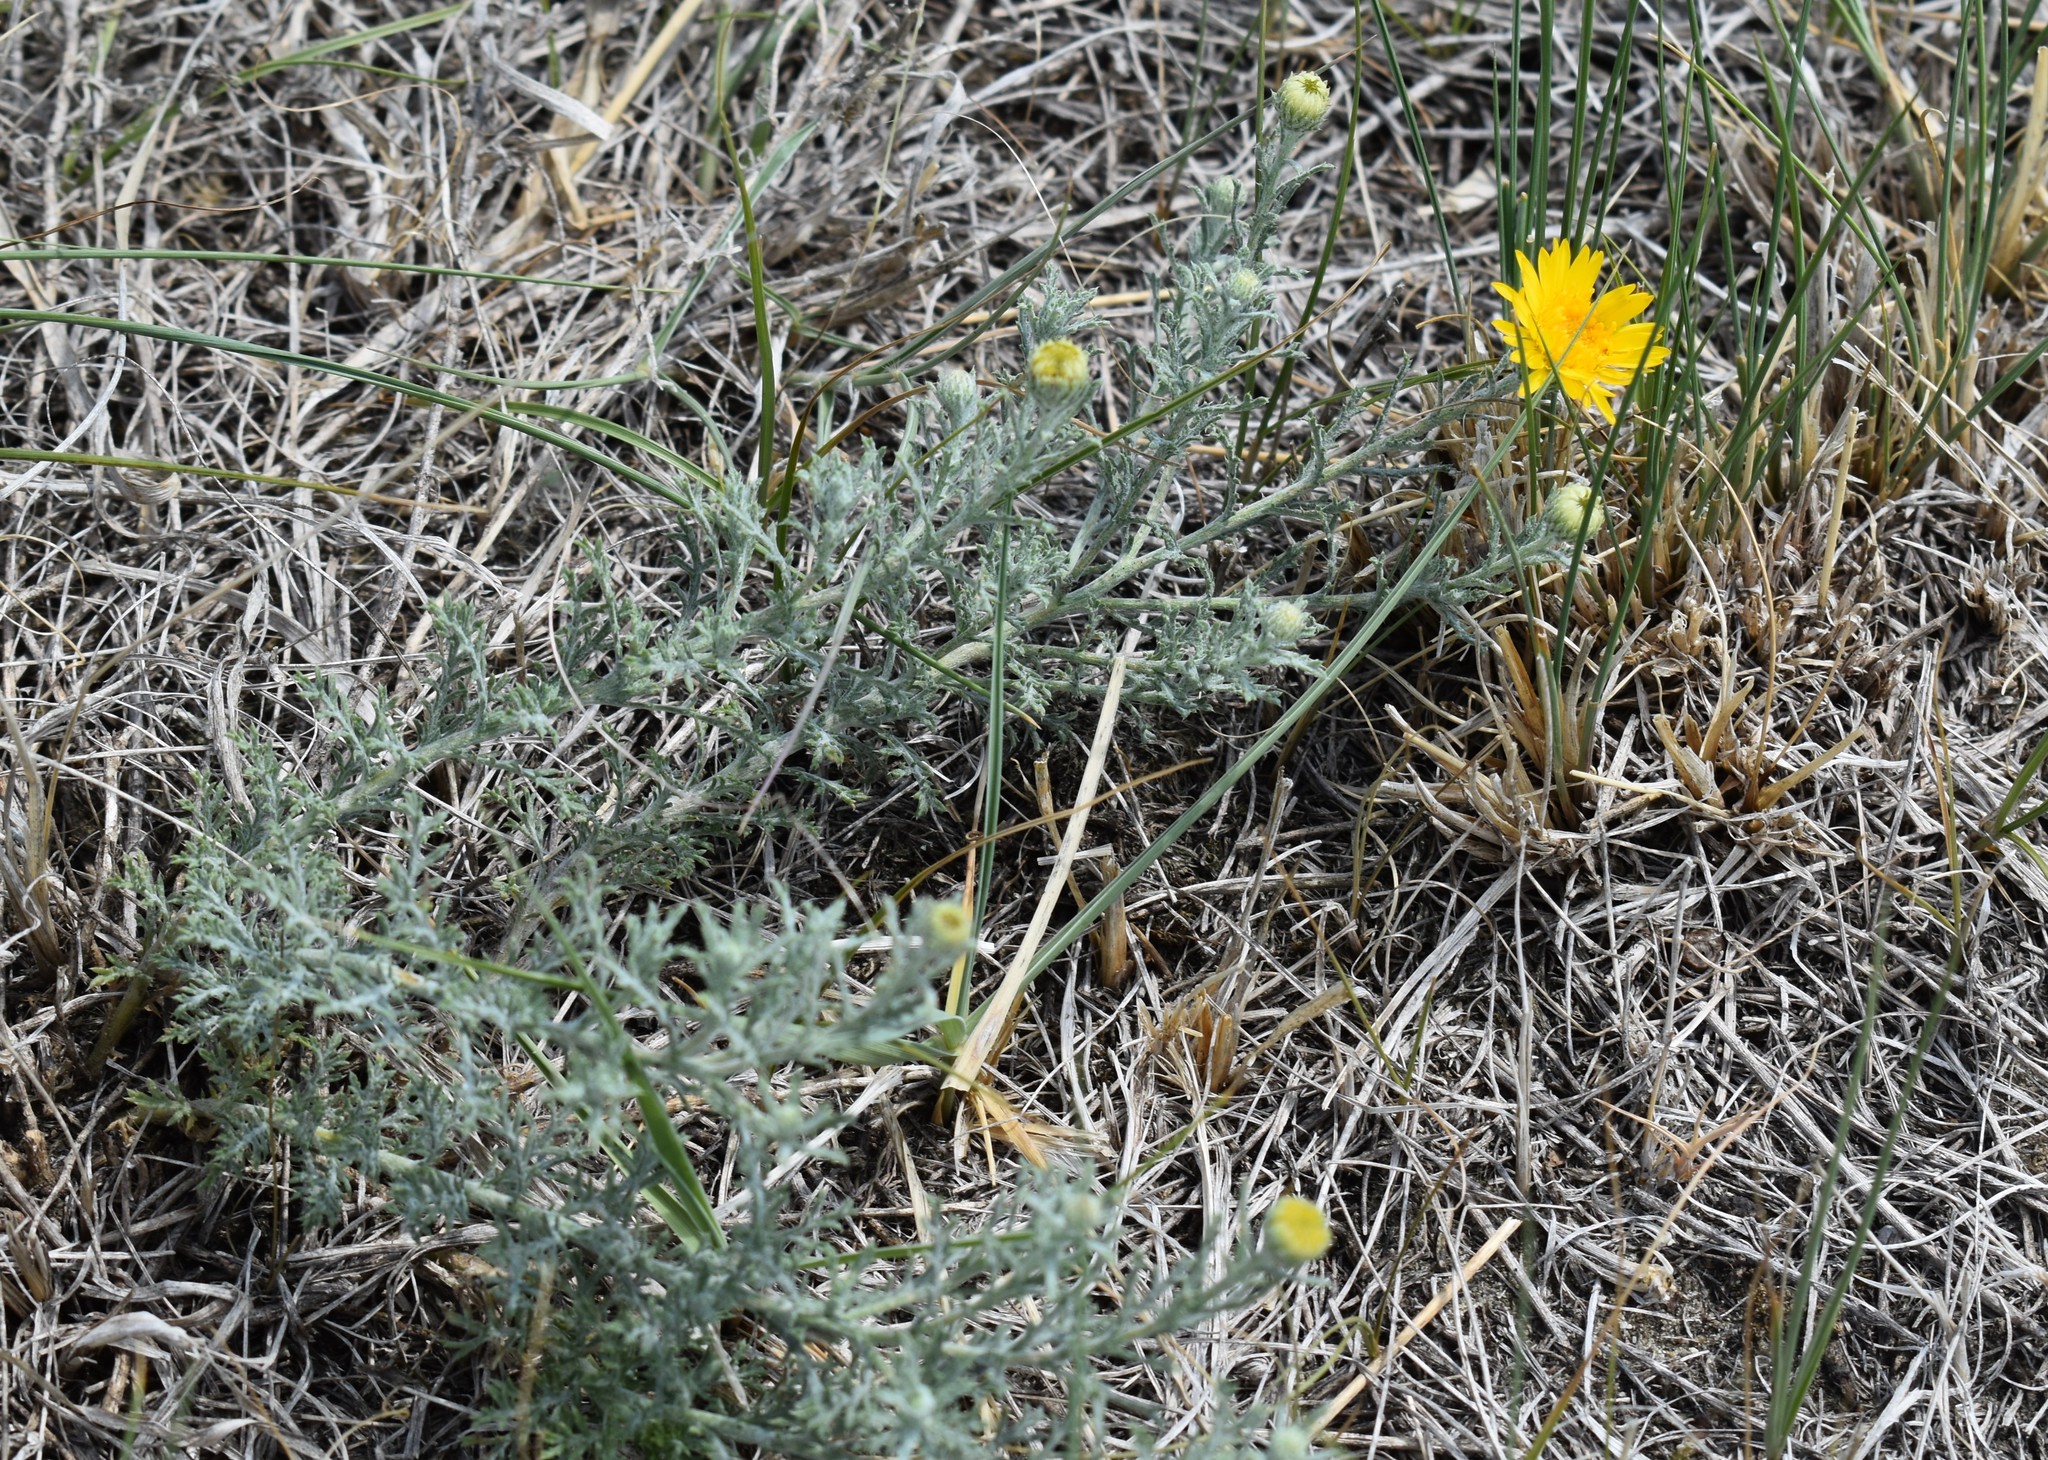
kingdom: Plantae
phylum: Tracheophyta
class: Magnoliopsida
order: Asterales
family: Asteraceae
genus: Xanthisma
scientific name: Xanthisma spinulosum
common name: Spiny goldenweed
